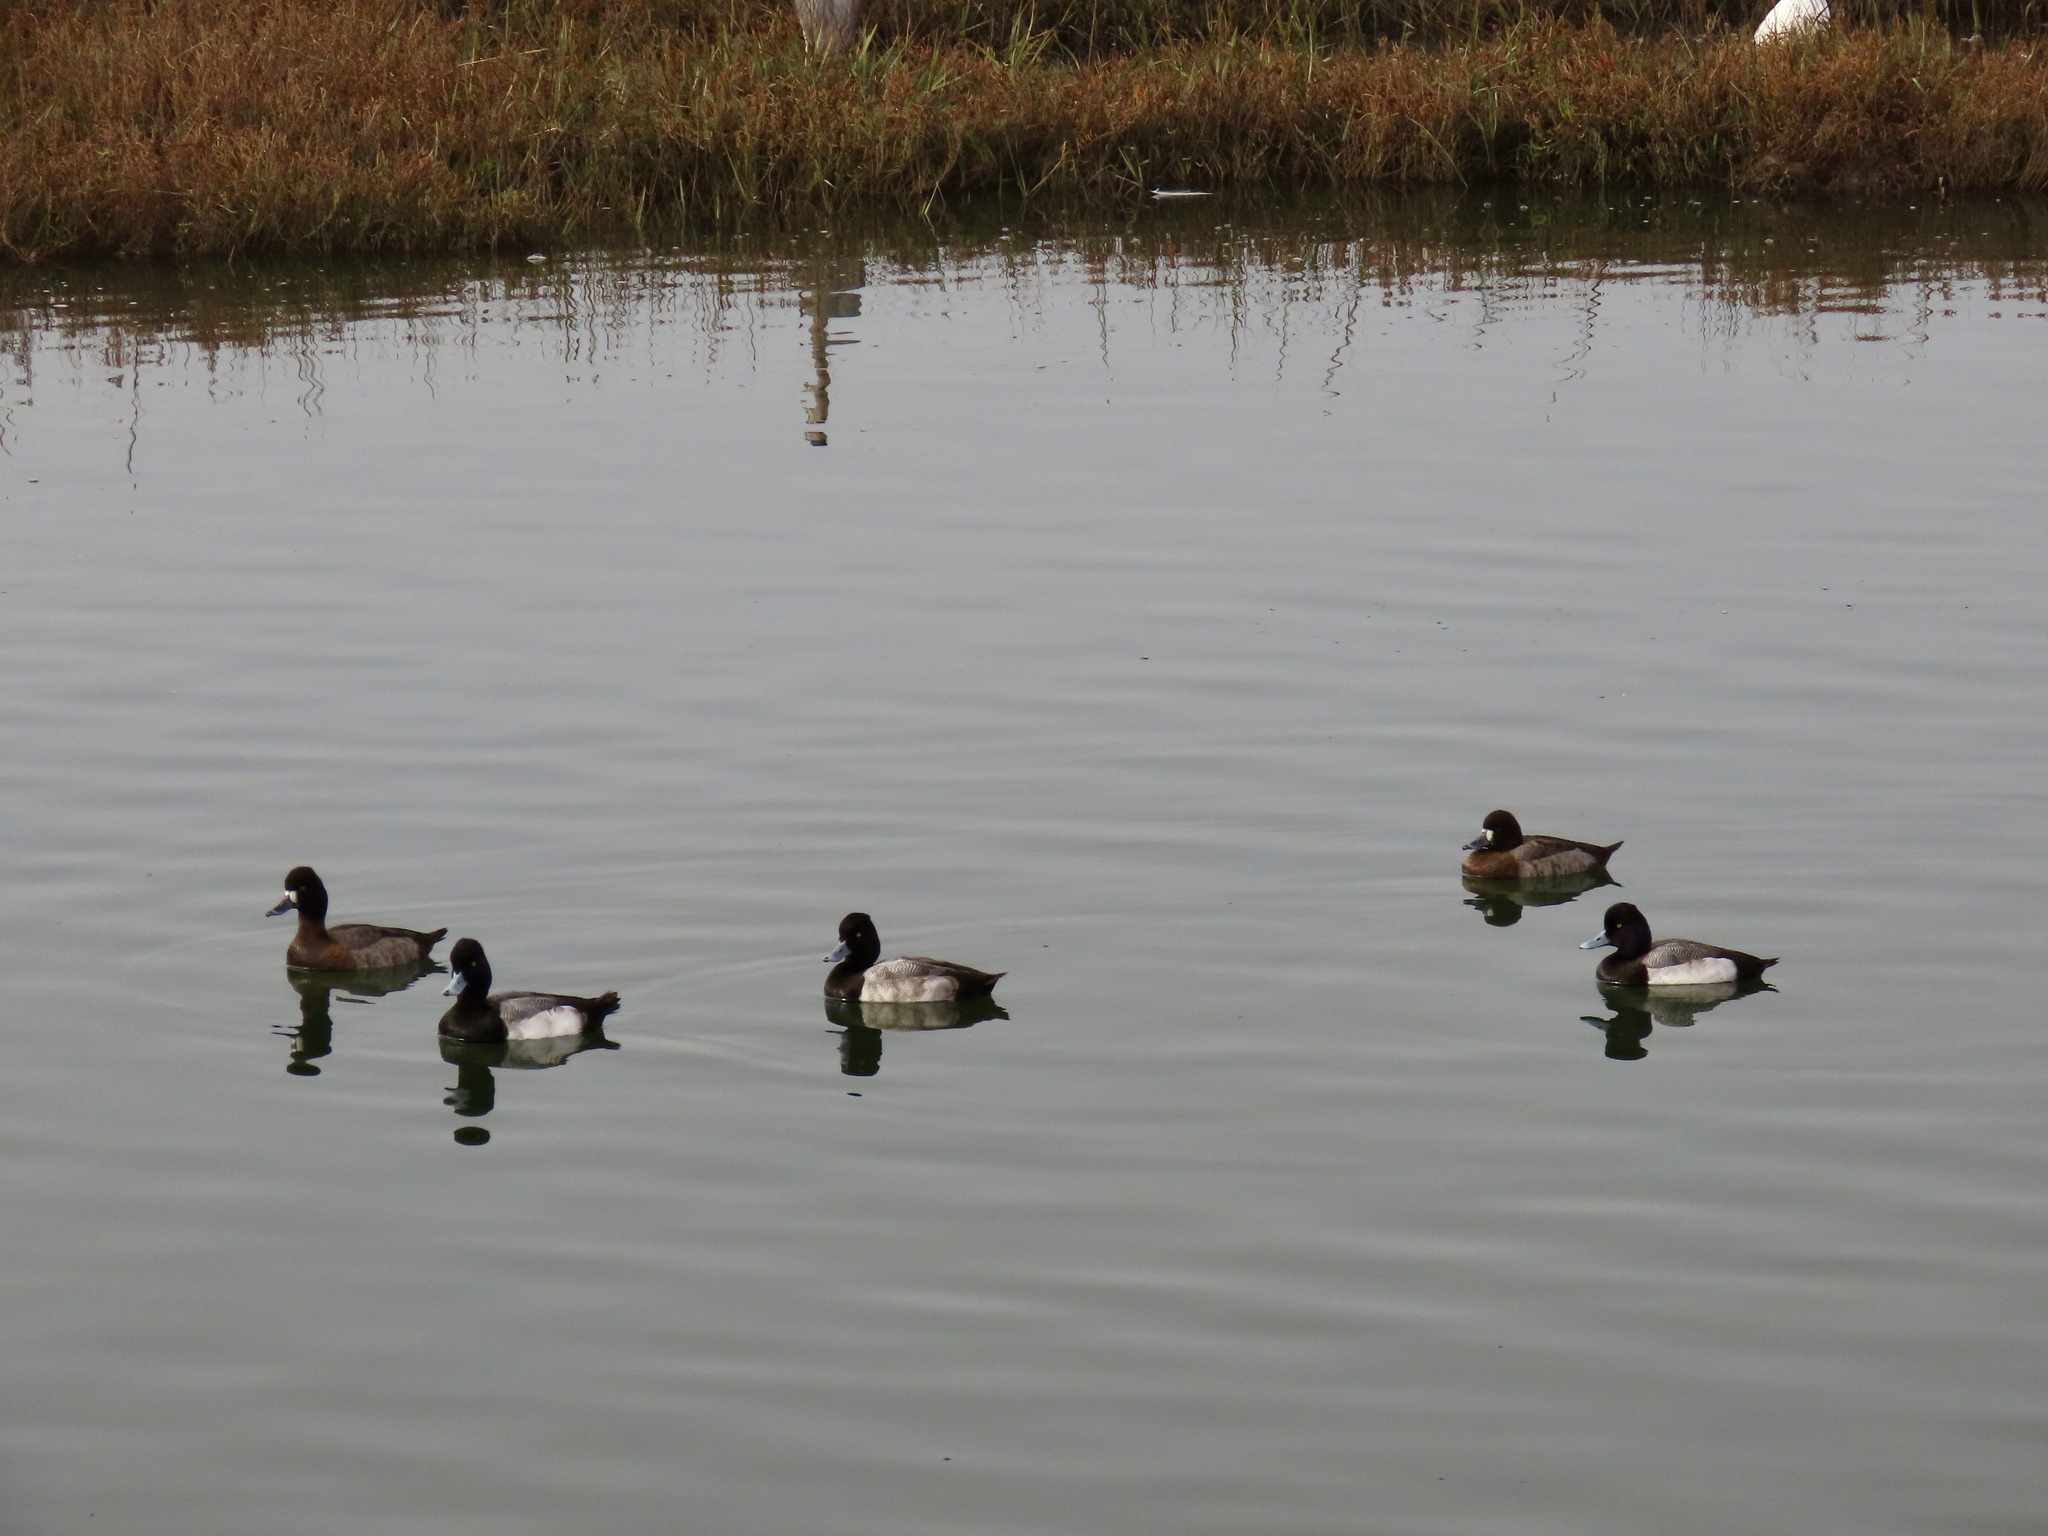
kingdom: Animalia
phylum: Chordata
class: Aves
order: Anseriformes
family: Anatidae
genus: Aythya
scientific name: Aythya affinis
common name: Lesser scaup
